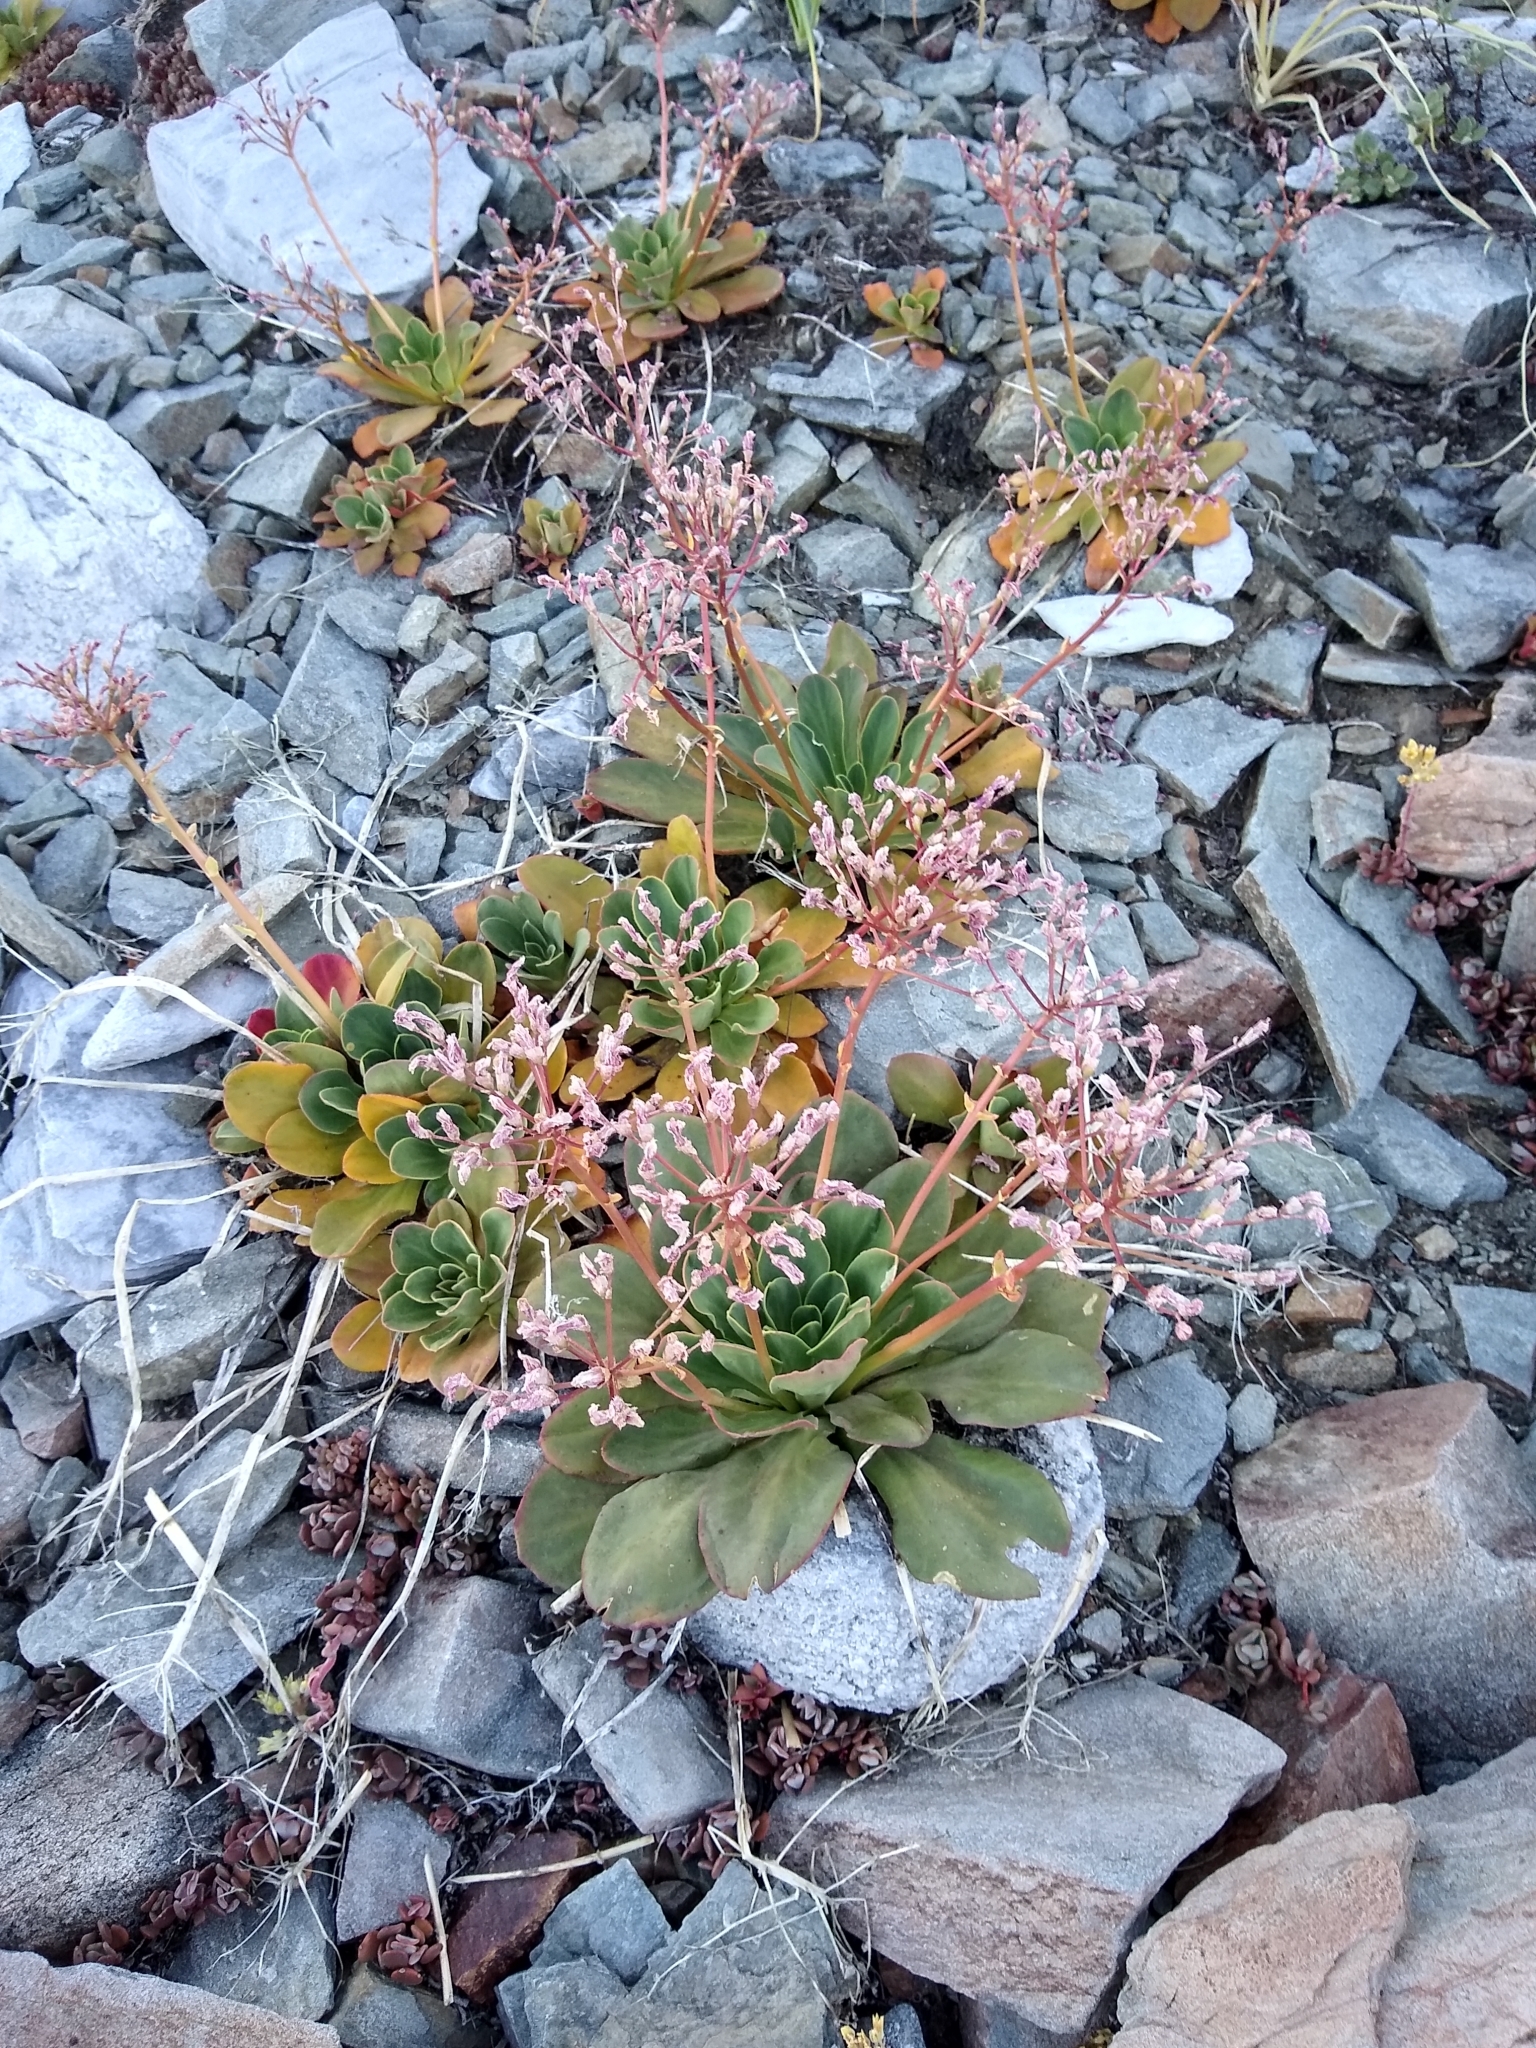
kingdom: Plantae
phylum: Tracheophyta
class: Magnoliopsida
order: Caryophyllales
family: Montiaceae
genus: Lewisia
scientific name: Lewisia cotyledon
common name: Siskiyou lewisia
